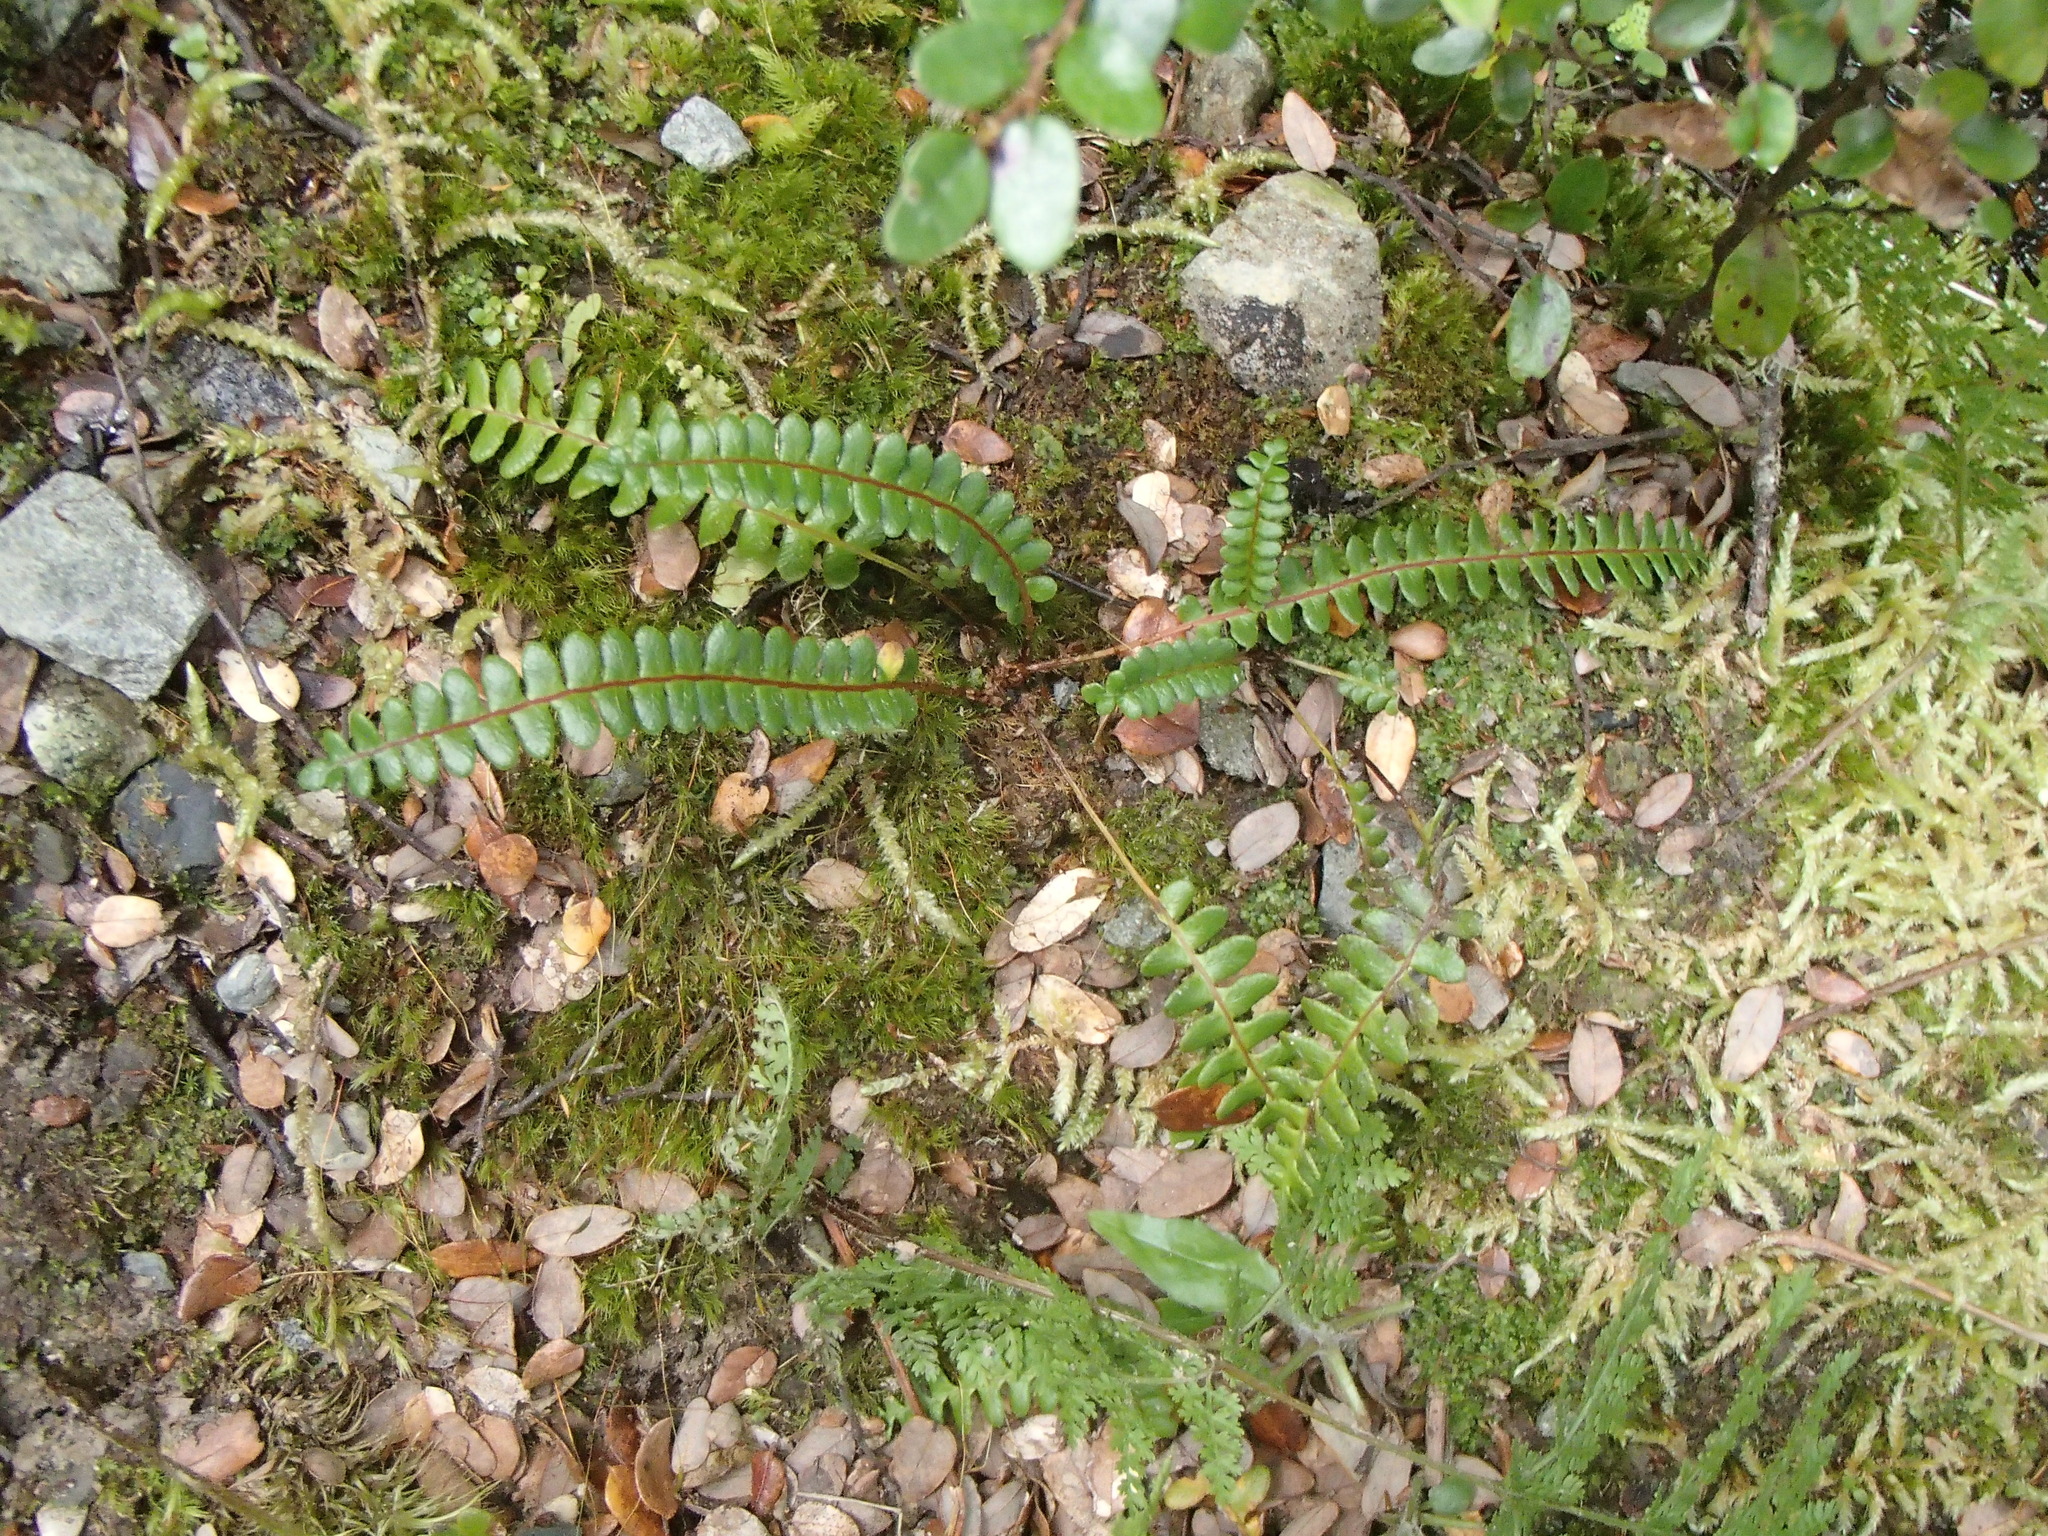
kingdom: Plantae
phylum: Tracheophyta
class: Polypodiopsida
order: Polypodiales
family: Blechnaceae
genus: Austroblechnum
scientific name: Austroblechnum penna-marina
